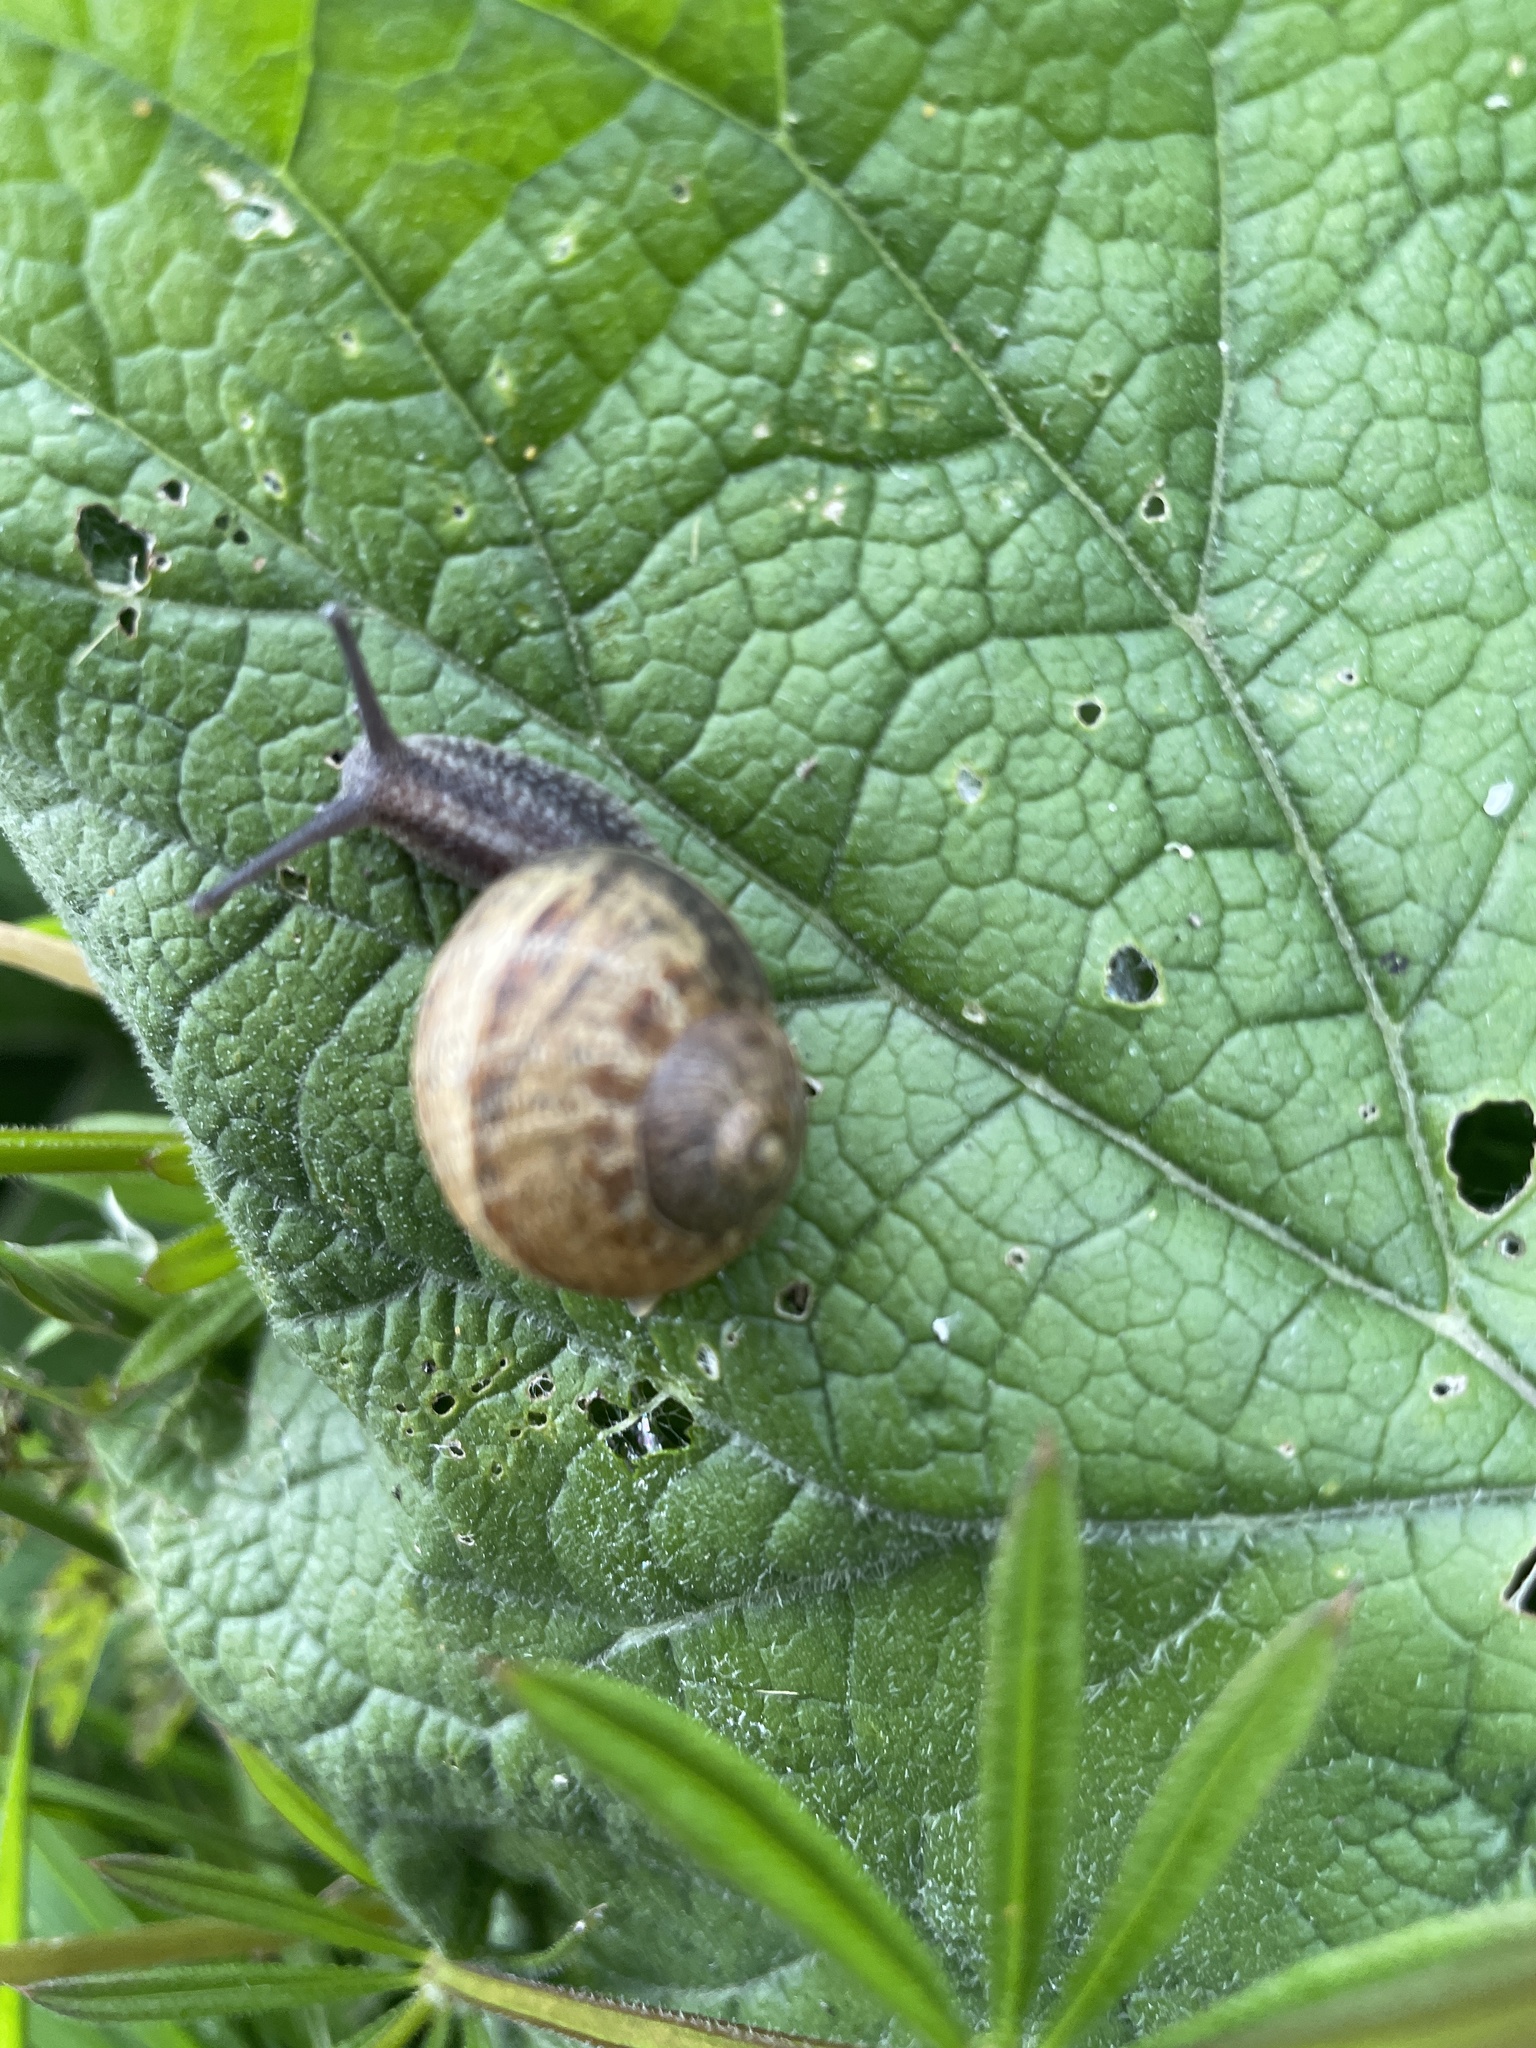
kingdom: Animalia
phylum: Mollusca
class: Gastropoda
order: Stylommatophora
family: Helicidae
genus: Cornu
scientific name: Cornu aspersum
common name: Brown garden snail
